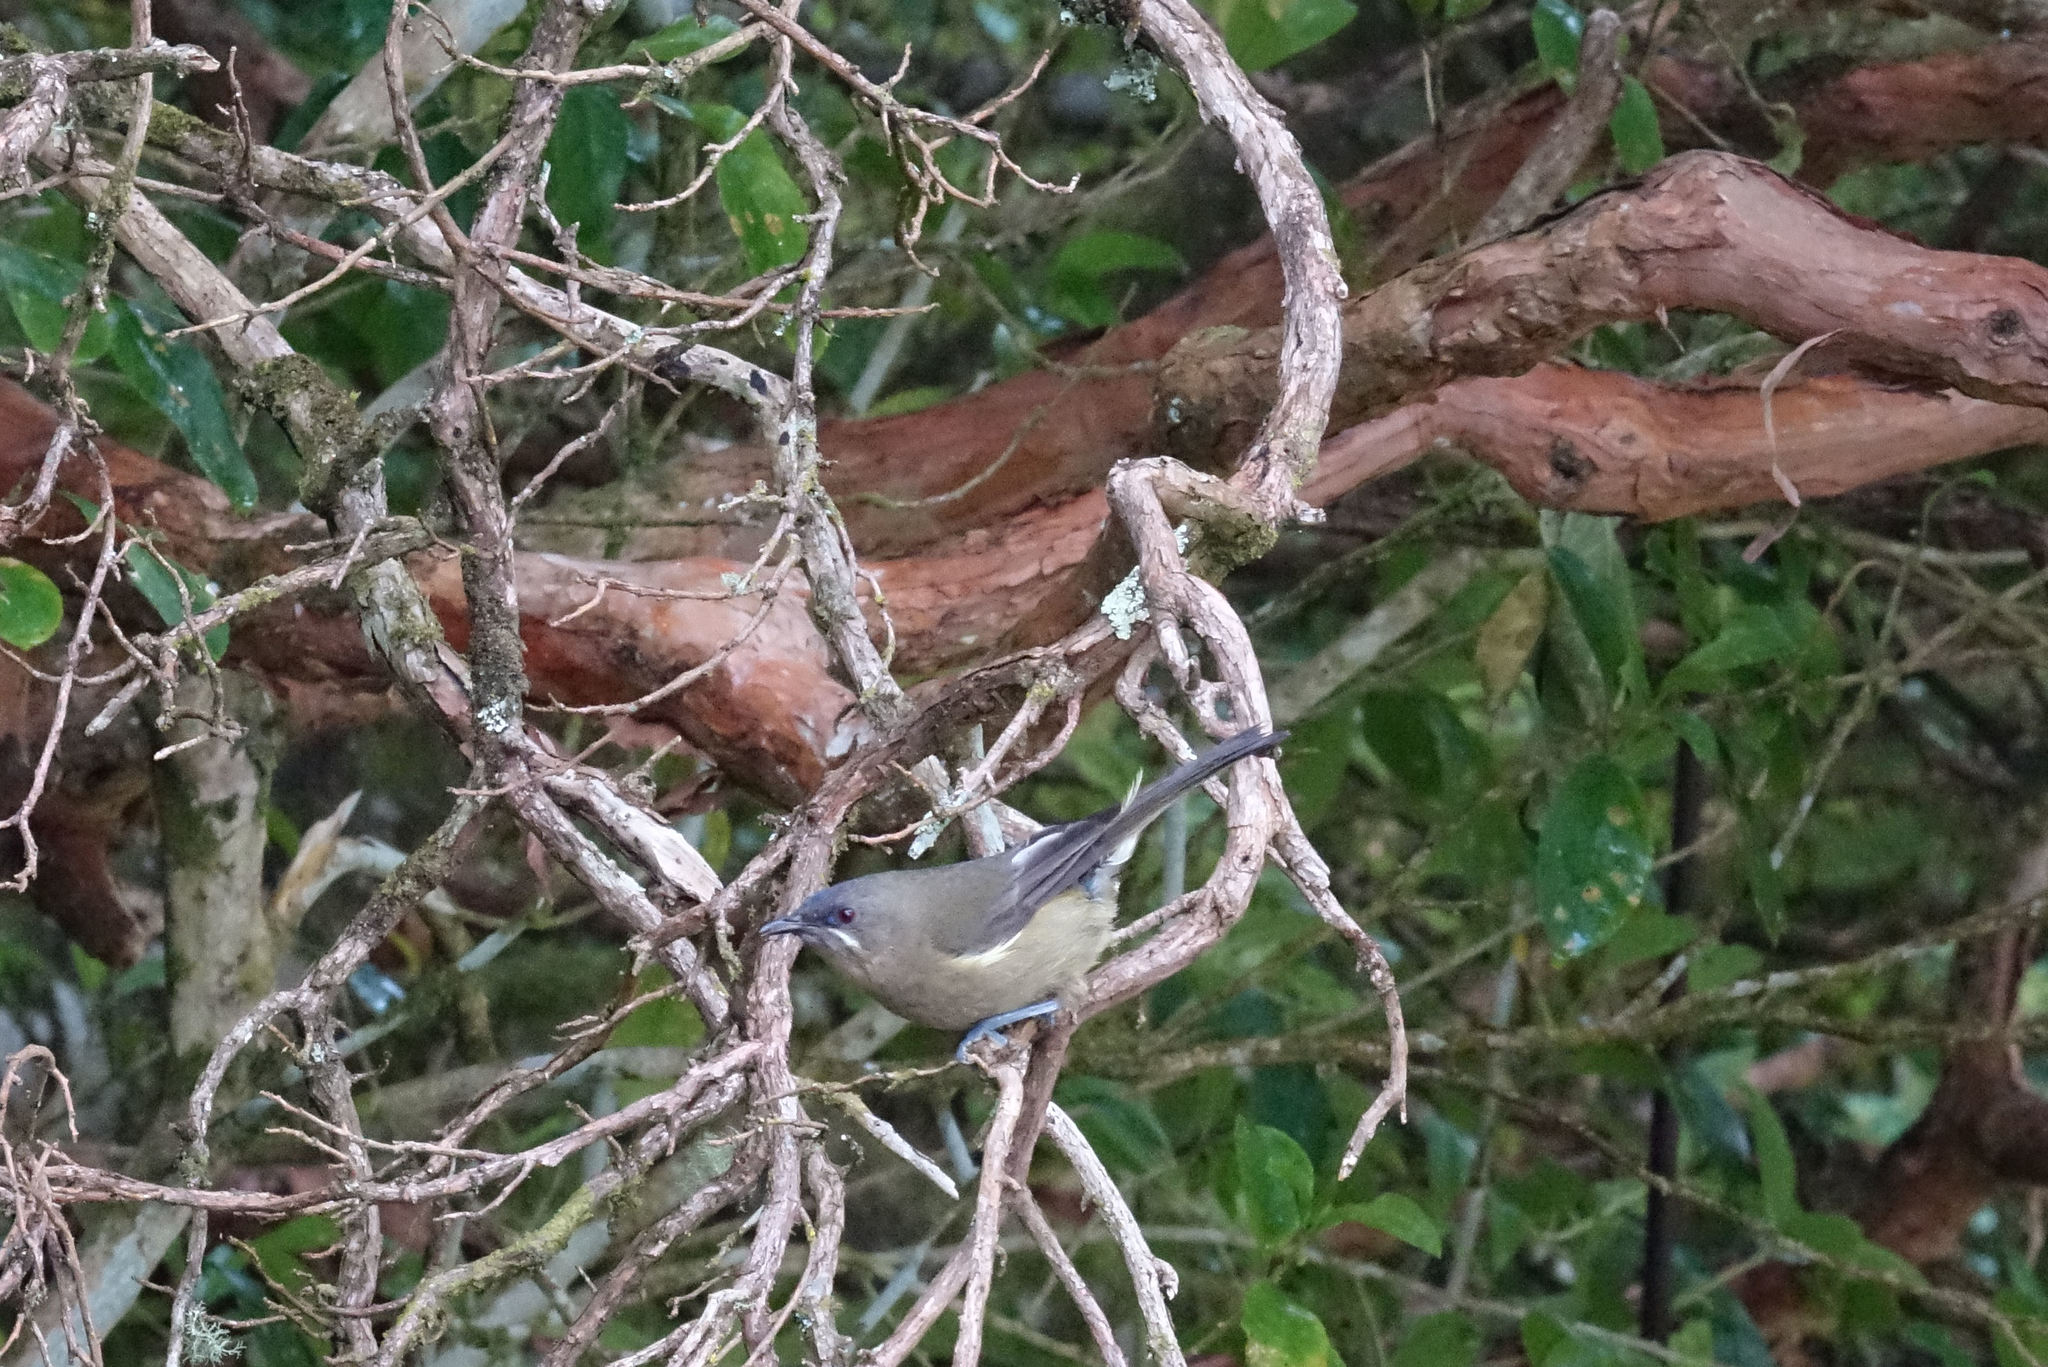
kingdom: Animalia
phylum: Chordata
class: Aves
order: Passeriformes
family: Meliphagidae
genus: Anthornis
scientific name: Anthornis melanura
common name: New zealand bellbird
